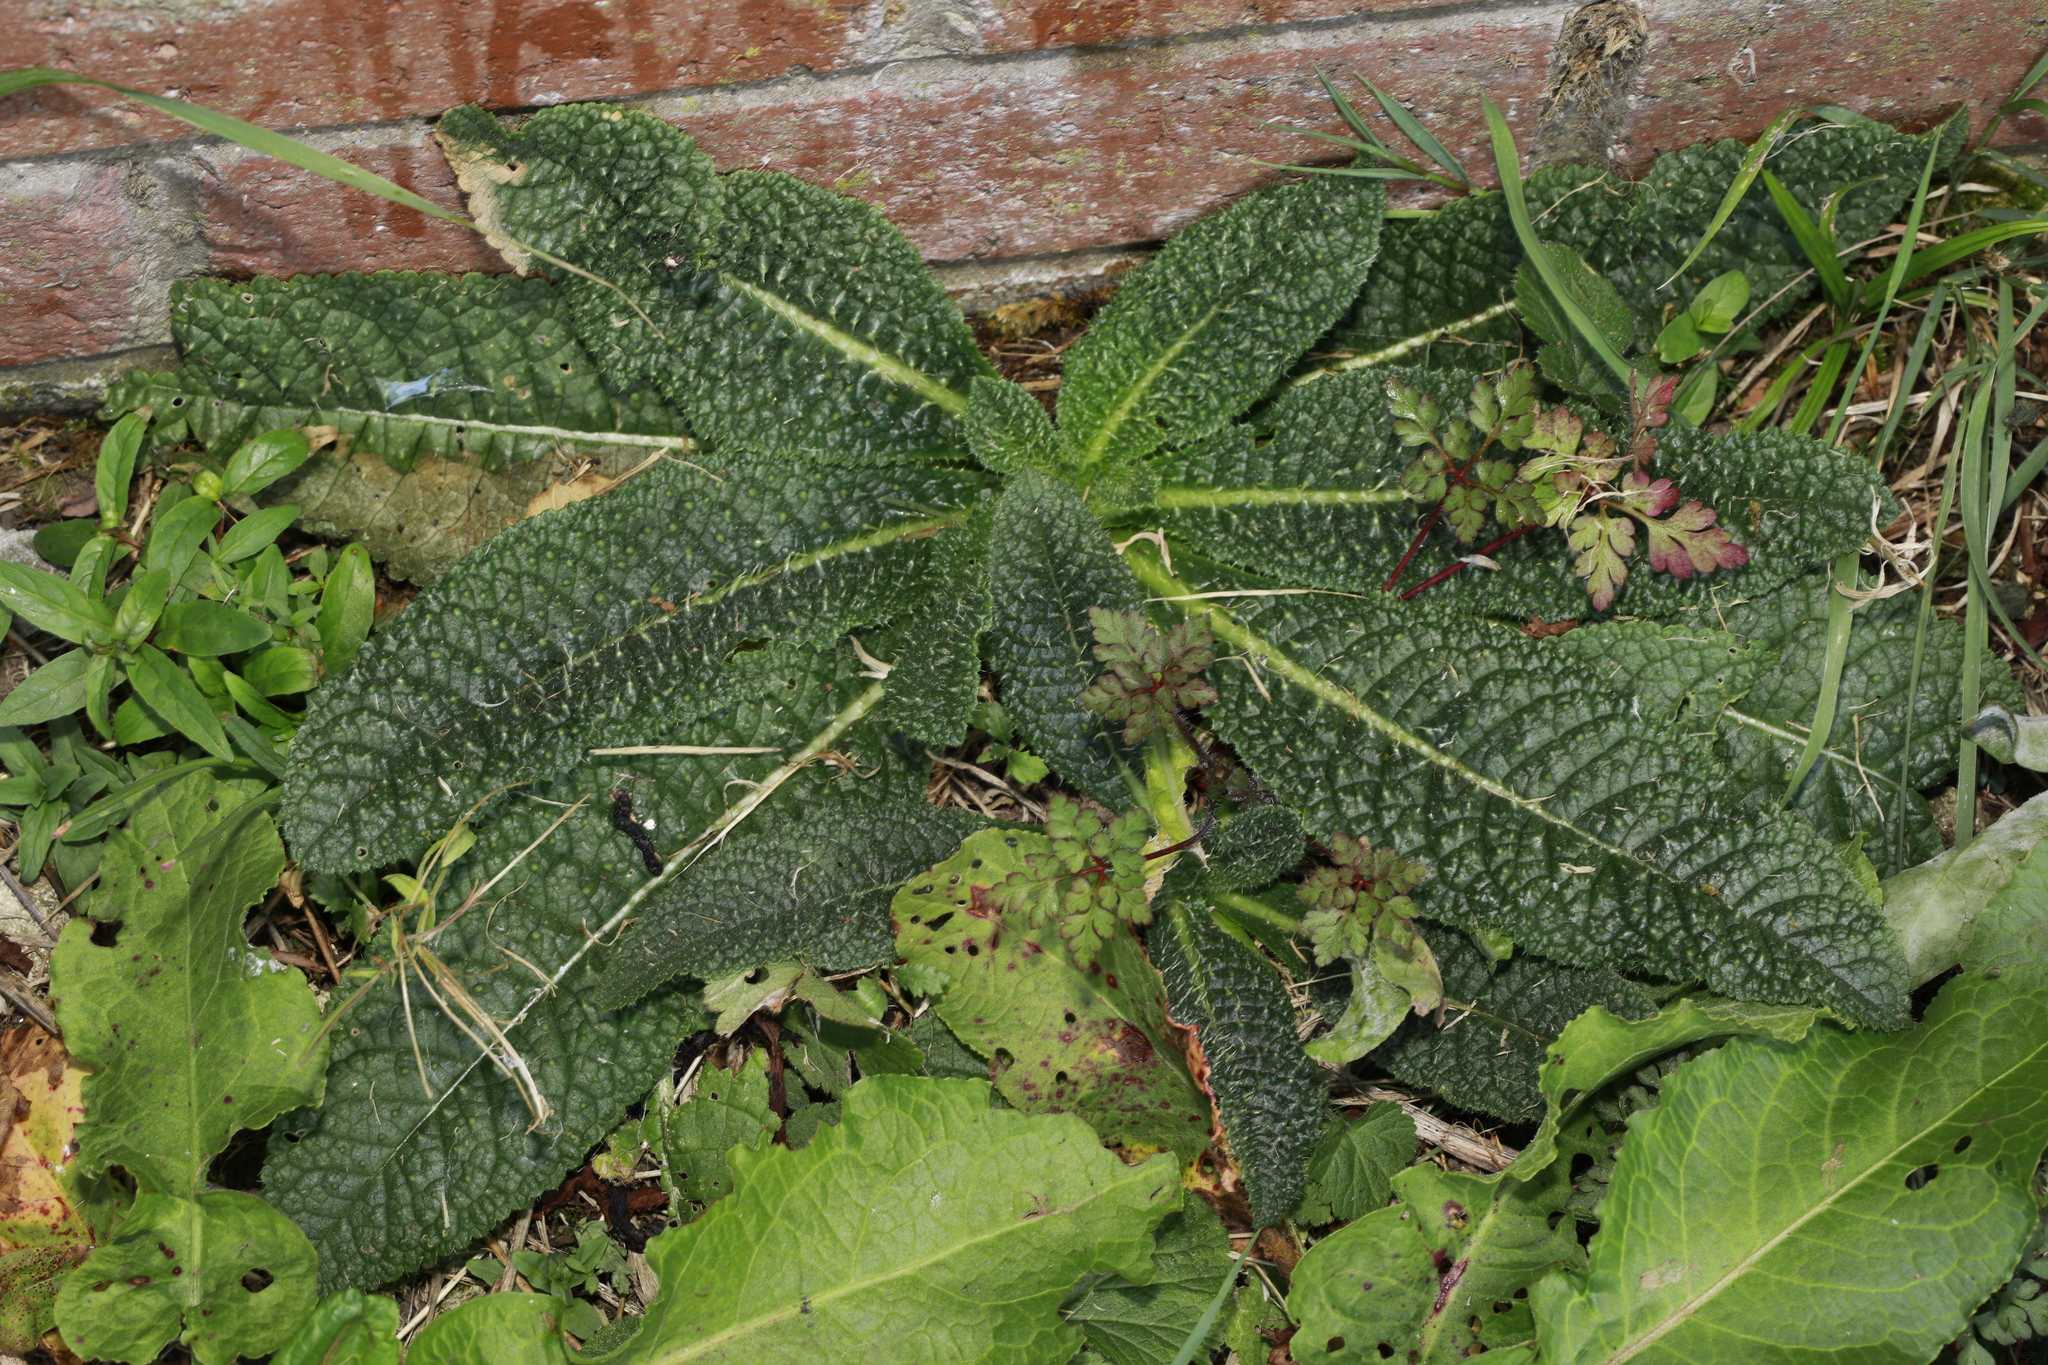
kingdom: Plantae
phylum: Tracheophyta
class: Magnoliopsida
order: Dipsacales
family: Caprifoliaceae
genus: Dipsacus
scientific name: Dipsacus fullonum
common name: Teasel
